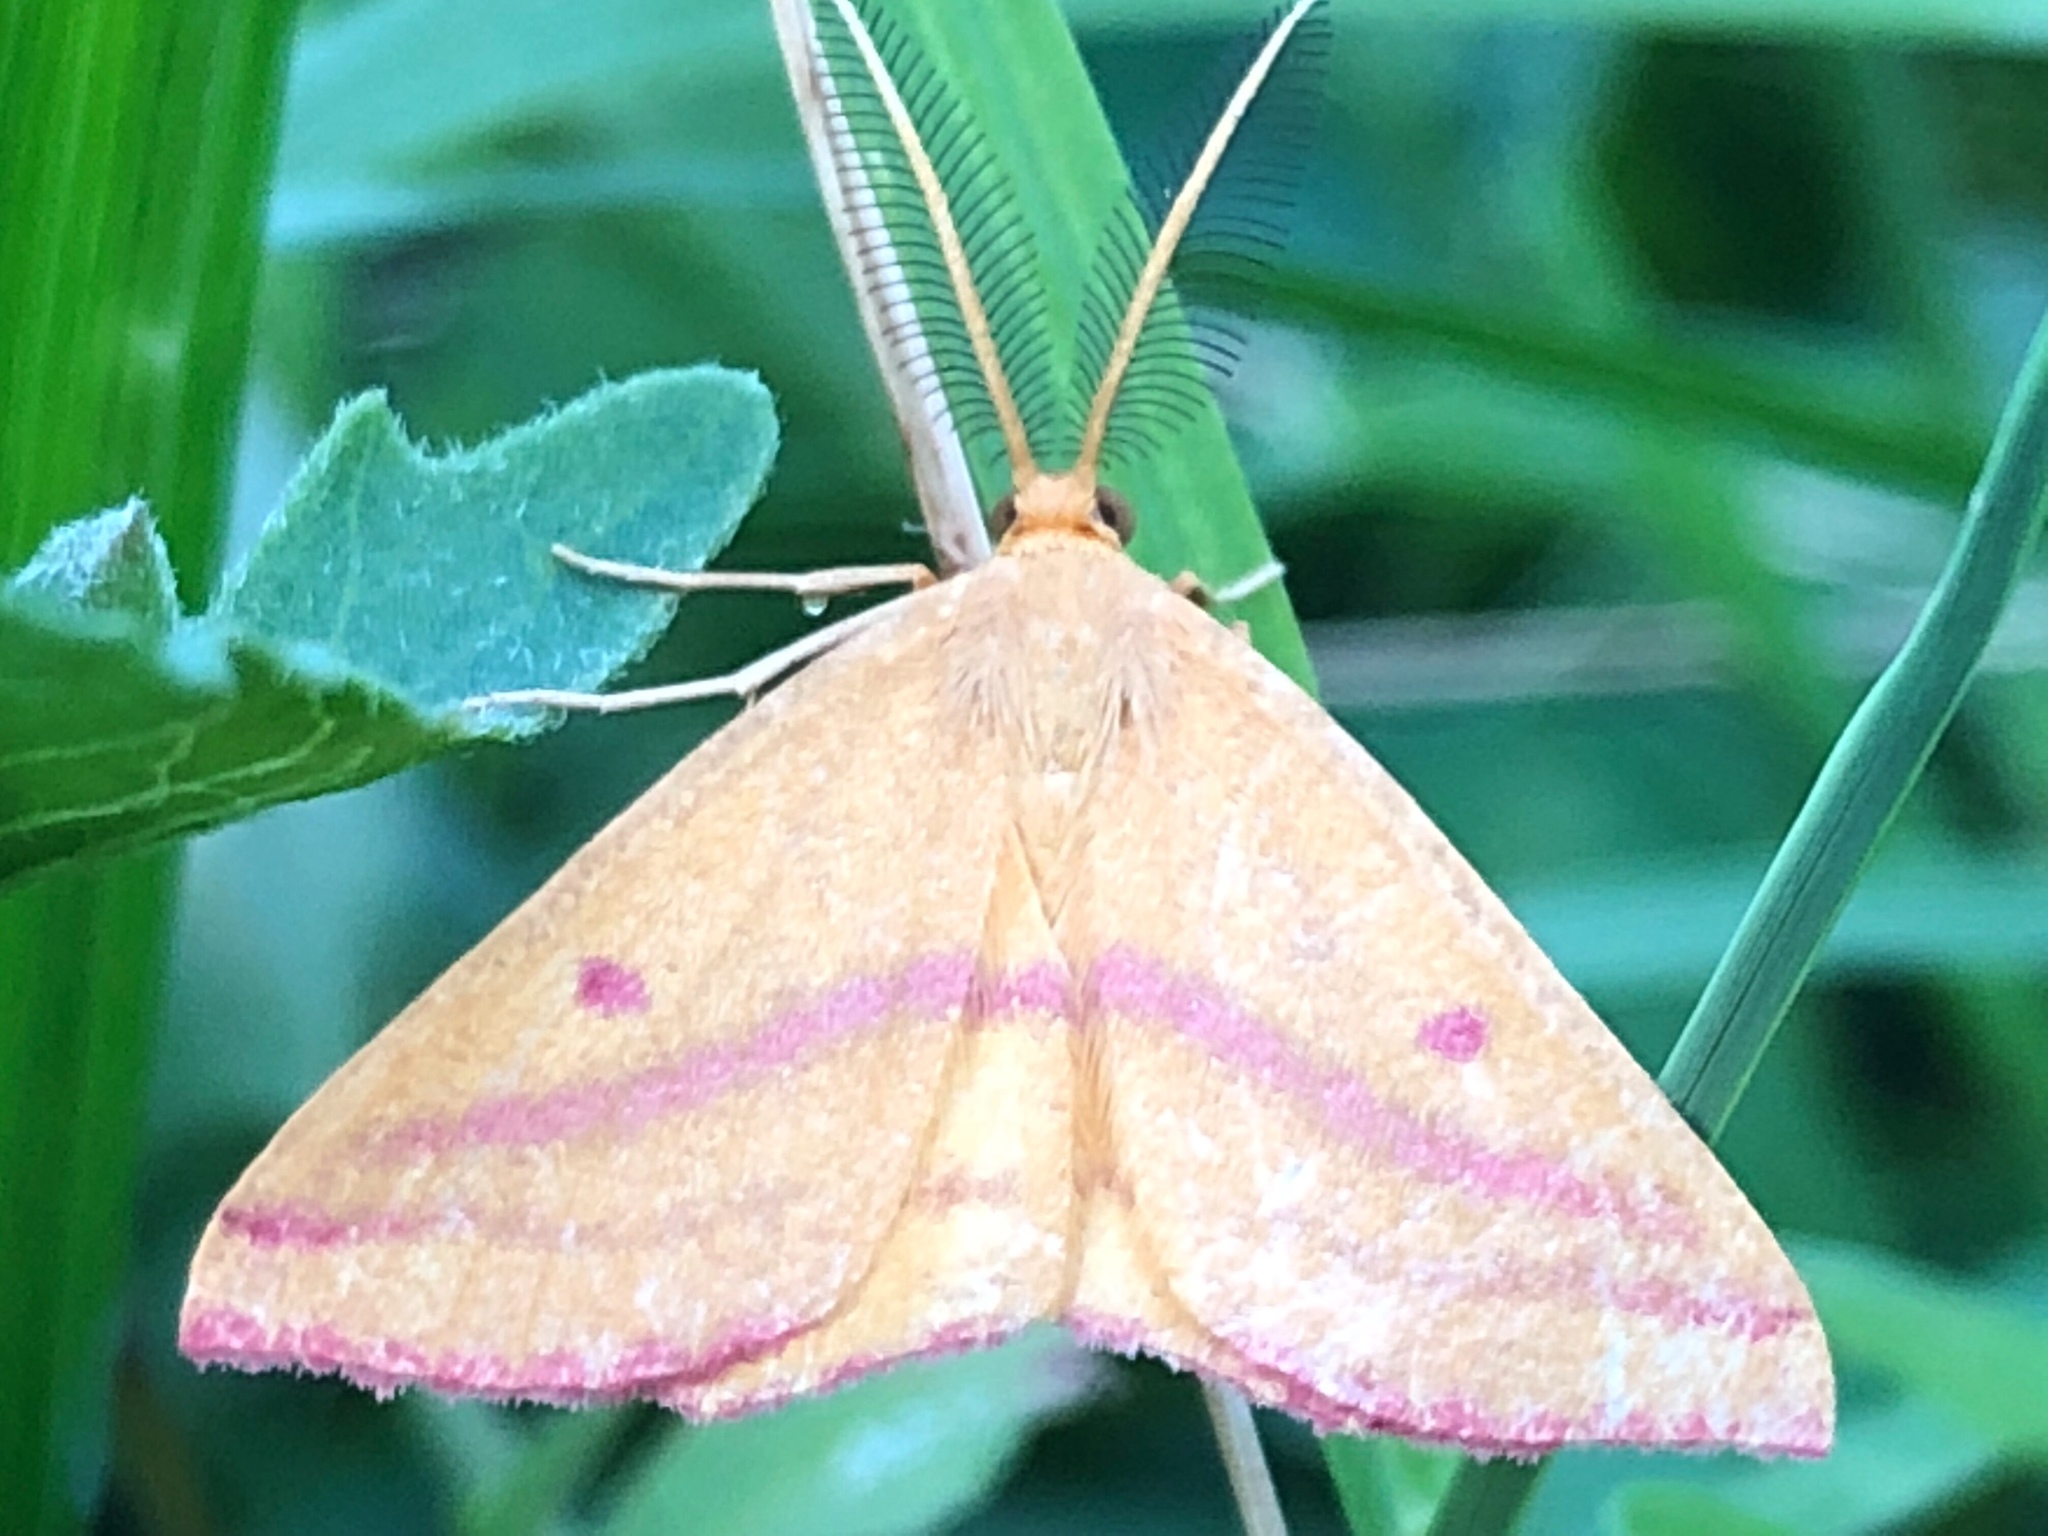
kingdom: Animalia
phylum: Arthropoda
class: Insecta
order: Lepidoptera
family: Geometridae
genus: Haematopis
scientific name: Haematopis grataria
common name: Chickweed geometer
